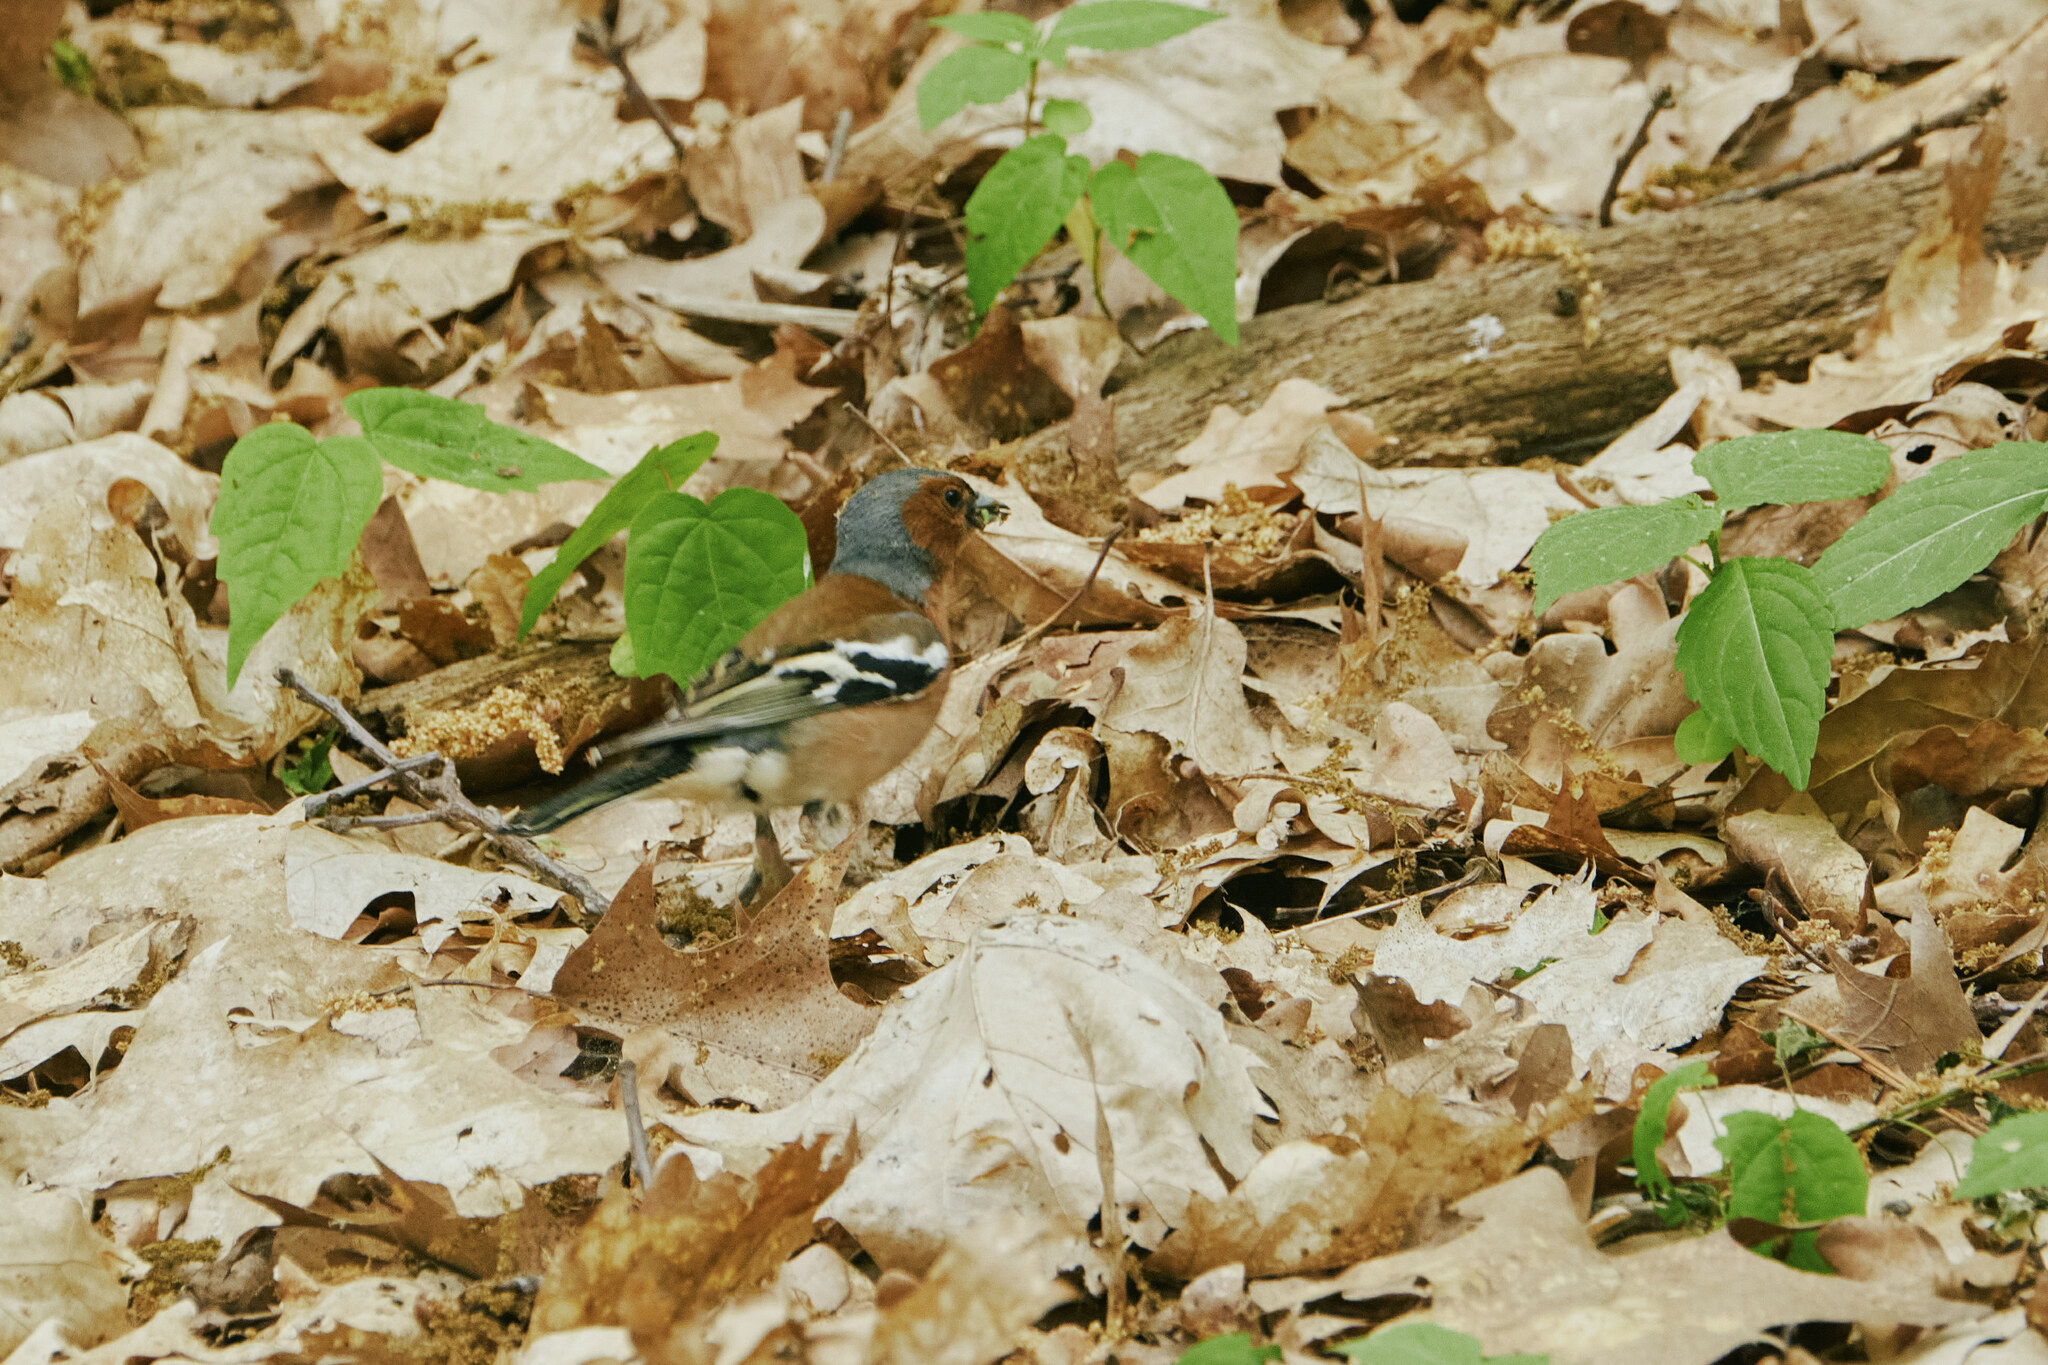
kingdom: Animalia
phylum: Chordata
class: Aves
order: Passeriformes
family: Fringillidae
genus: Fringilla
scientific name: Fringilla coelebs
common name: Common chaffinch
